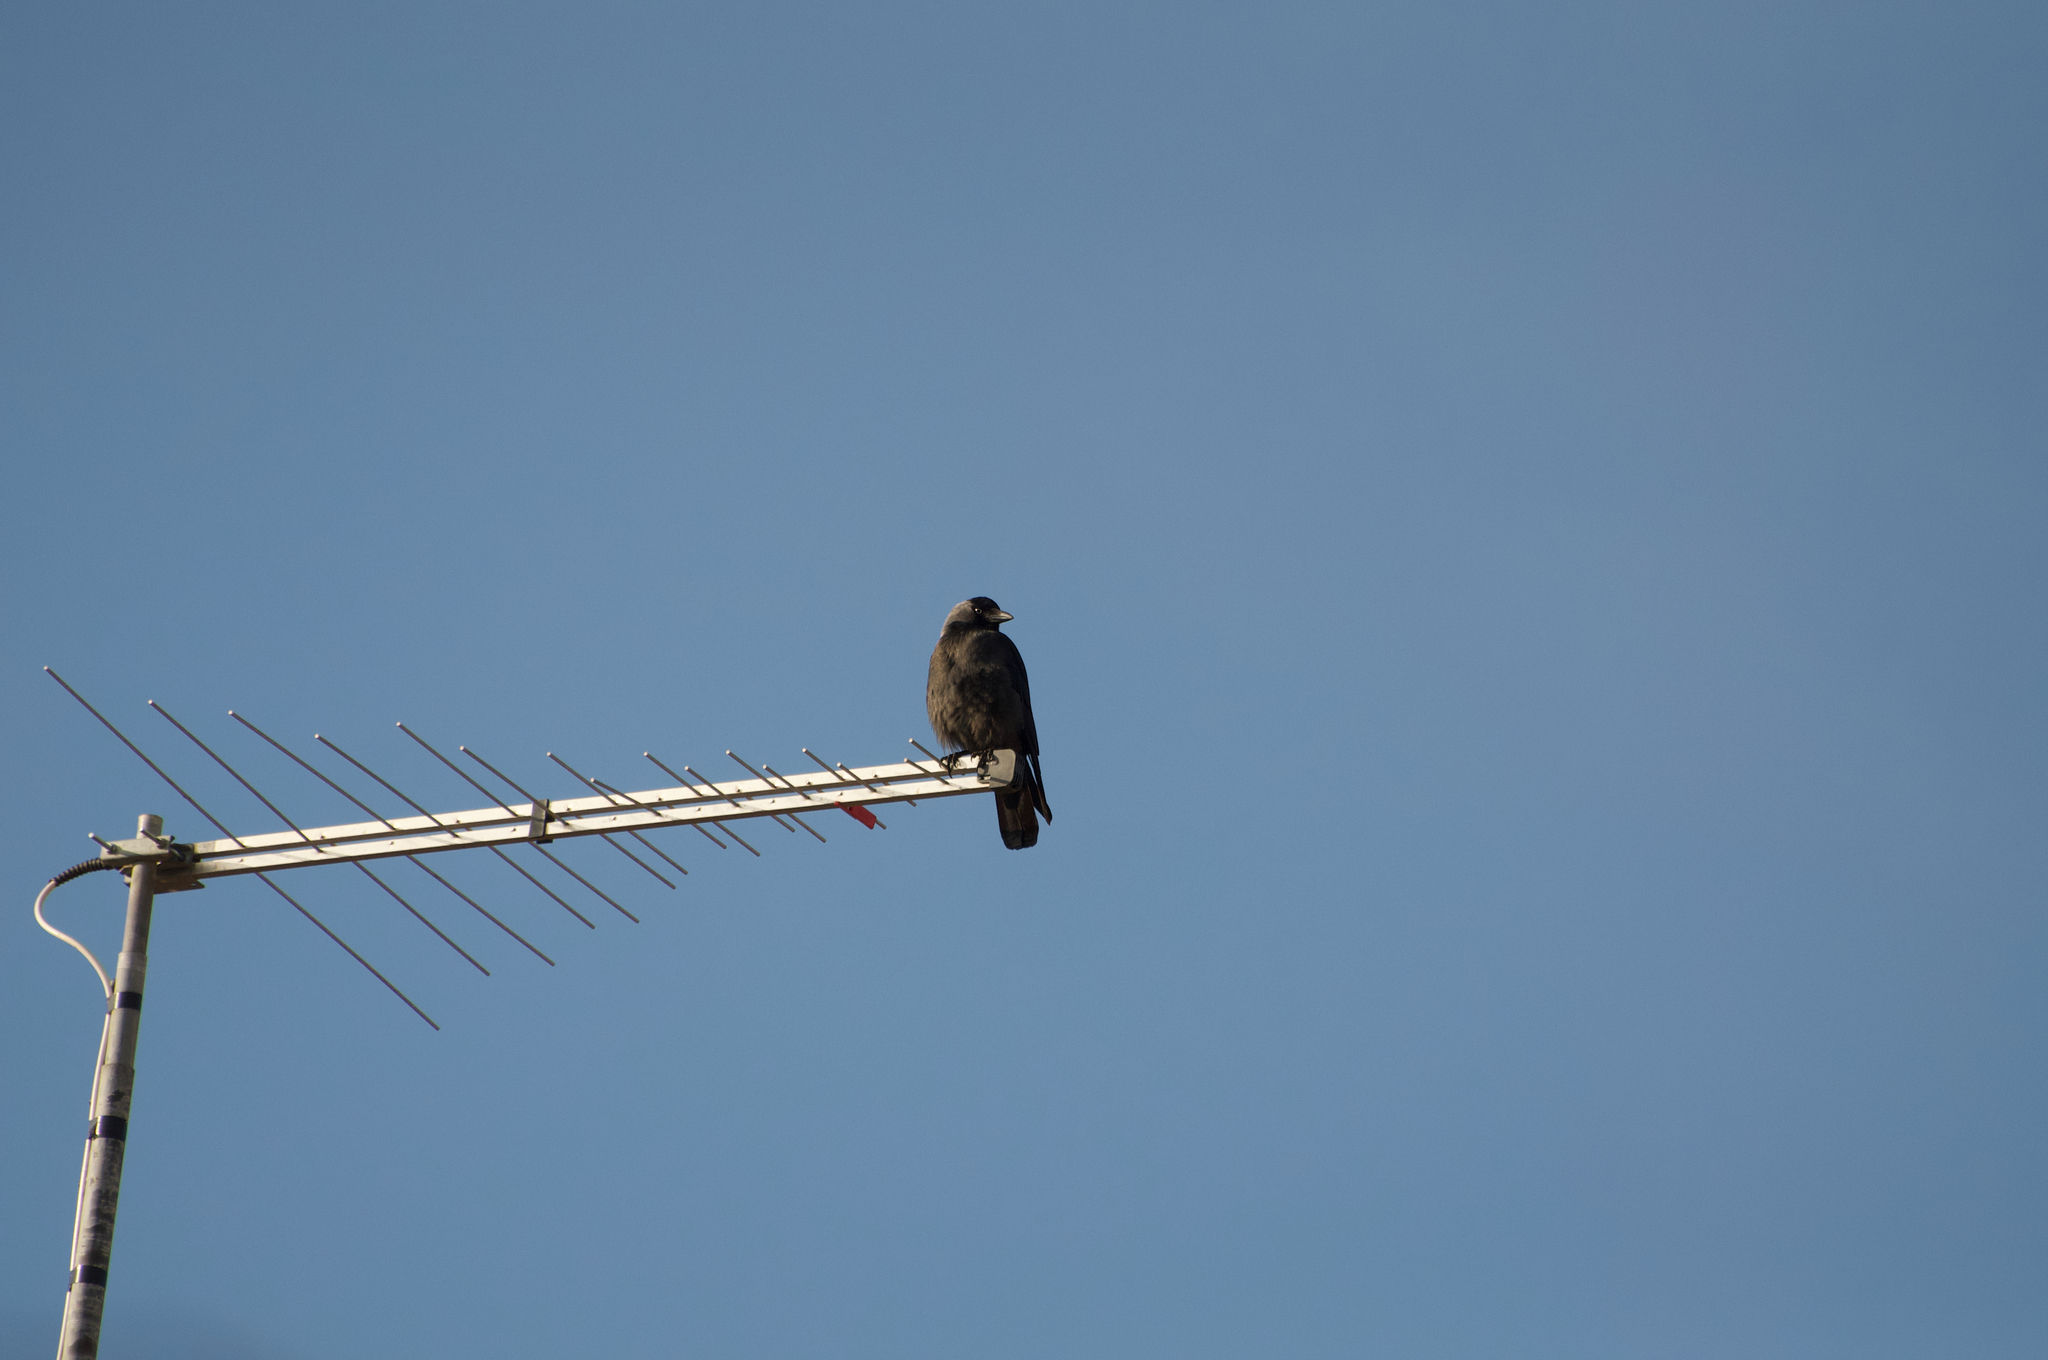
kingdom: Animalia
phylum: Chordata
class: Aves
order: Passeriformes
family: Corvidae
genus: Coloeus
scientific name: Coloeus monedula
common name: Western jackdaw
